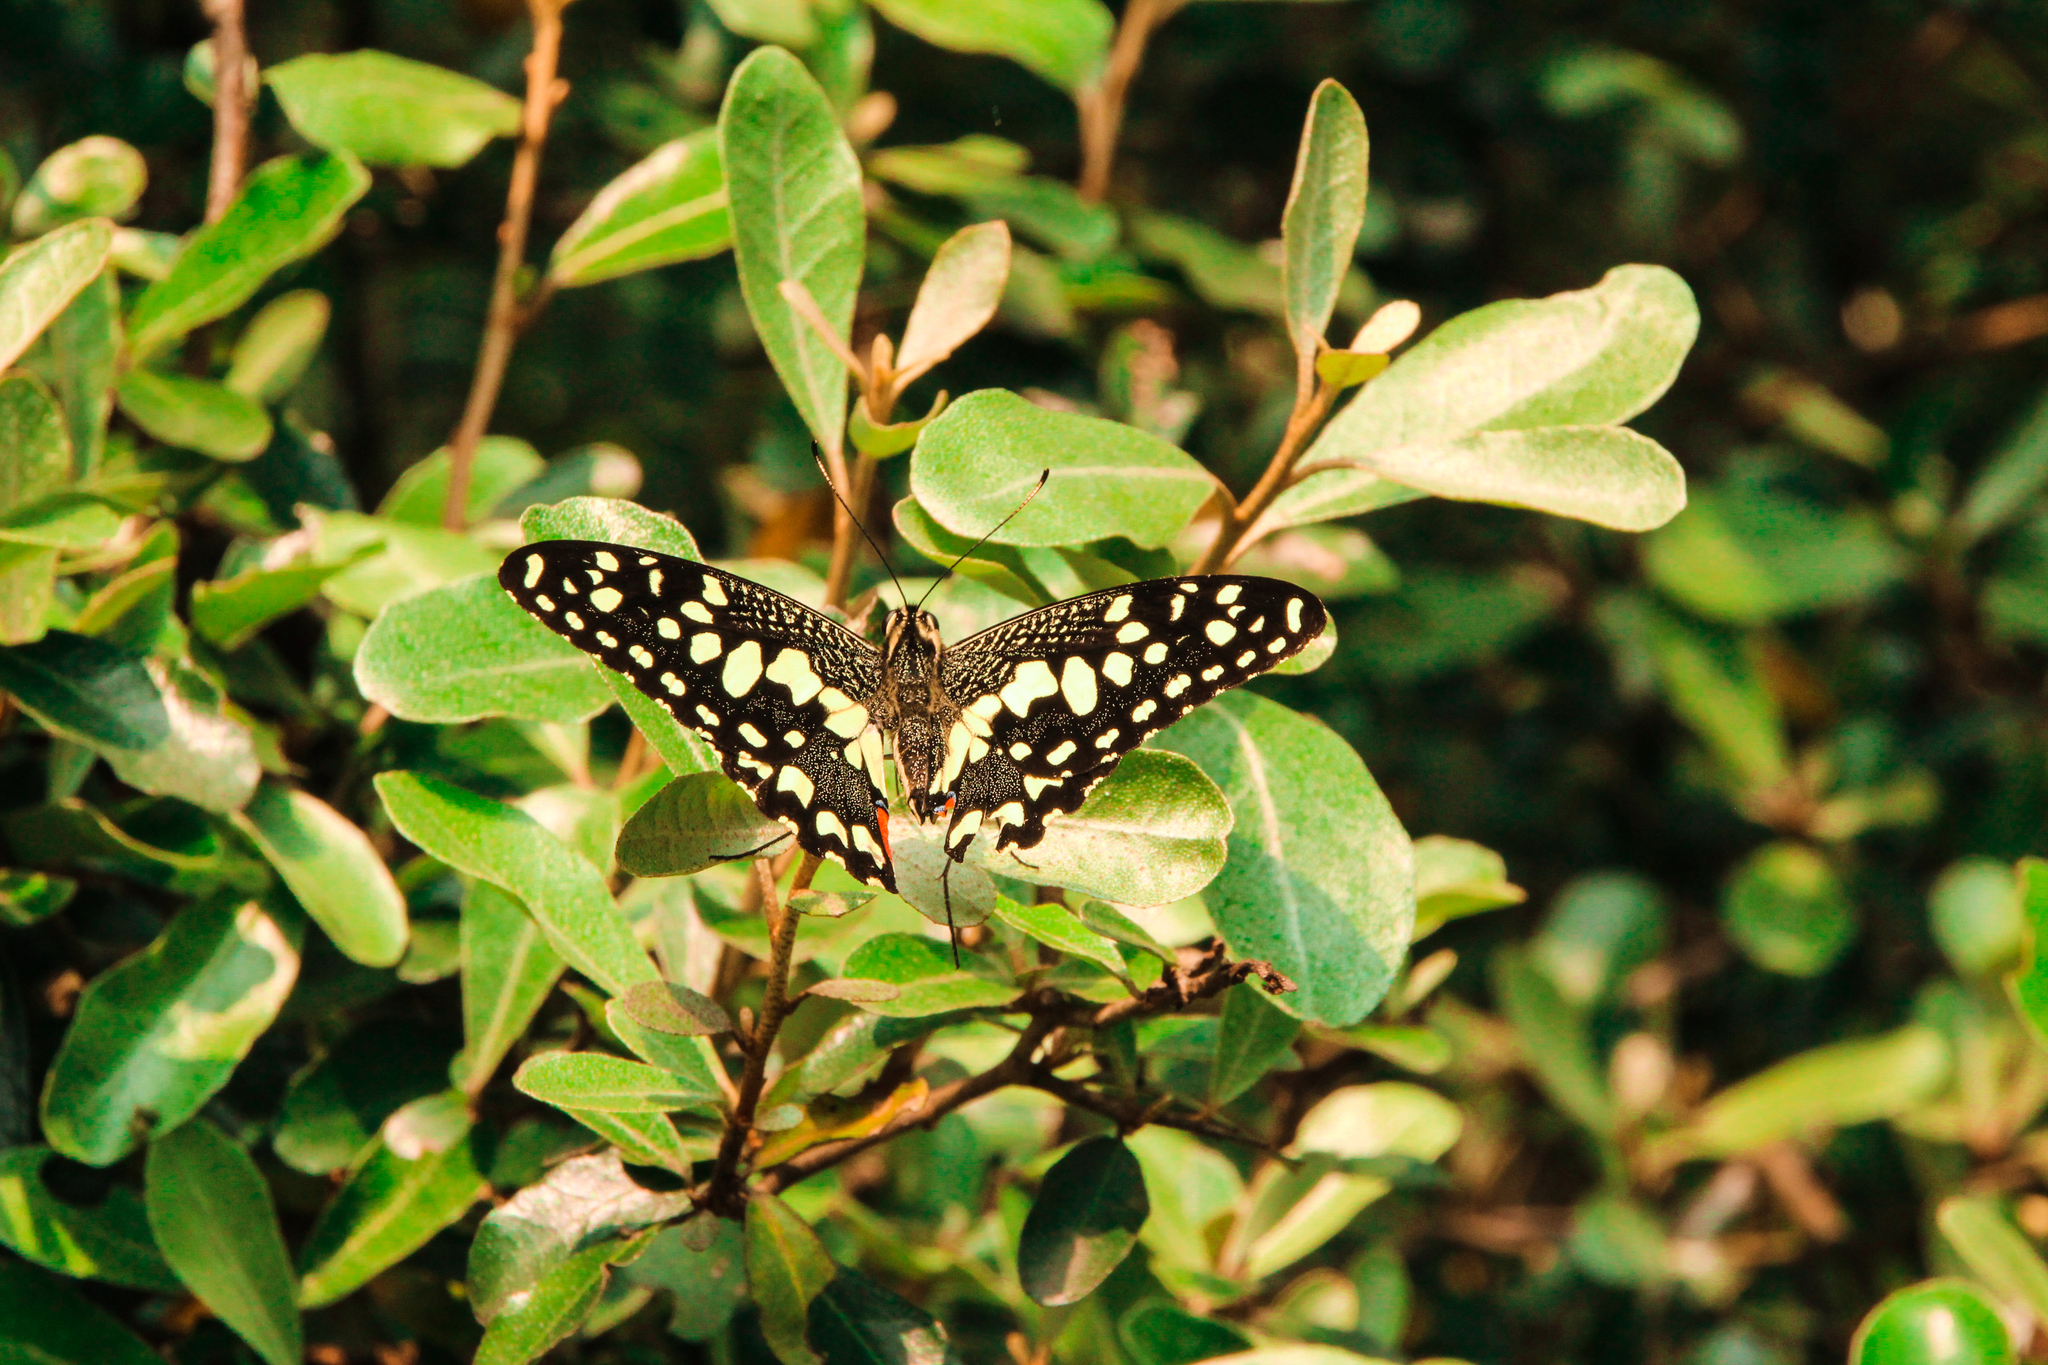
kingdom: Animalia
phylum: Arthropoda
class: Insecta
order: Lepidoptera
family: Papilionidae
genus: Papilio
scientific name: Papilio demoleus
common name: Lime butterfly
